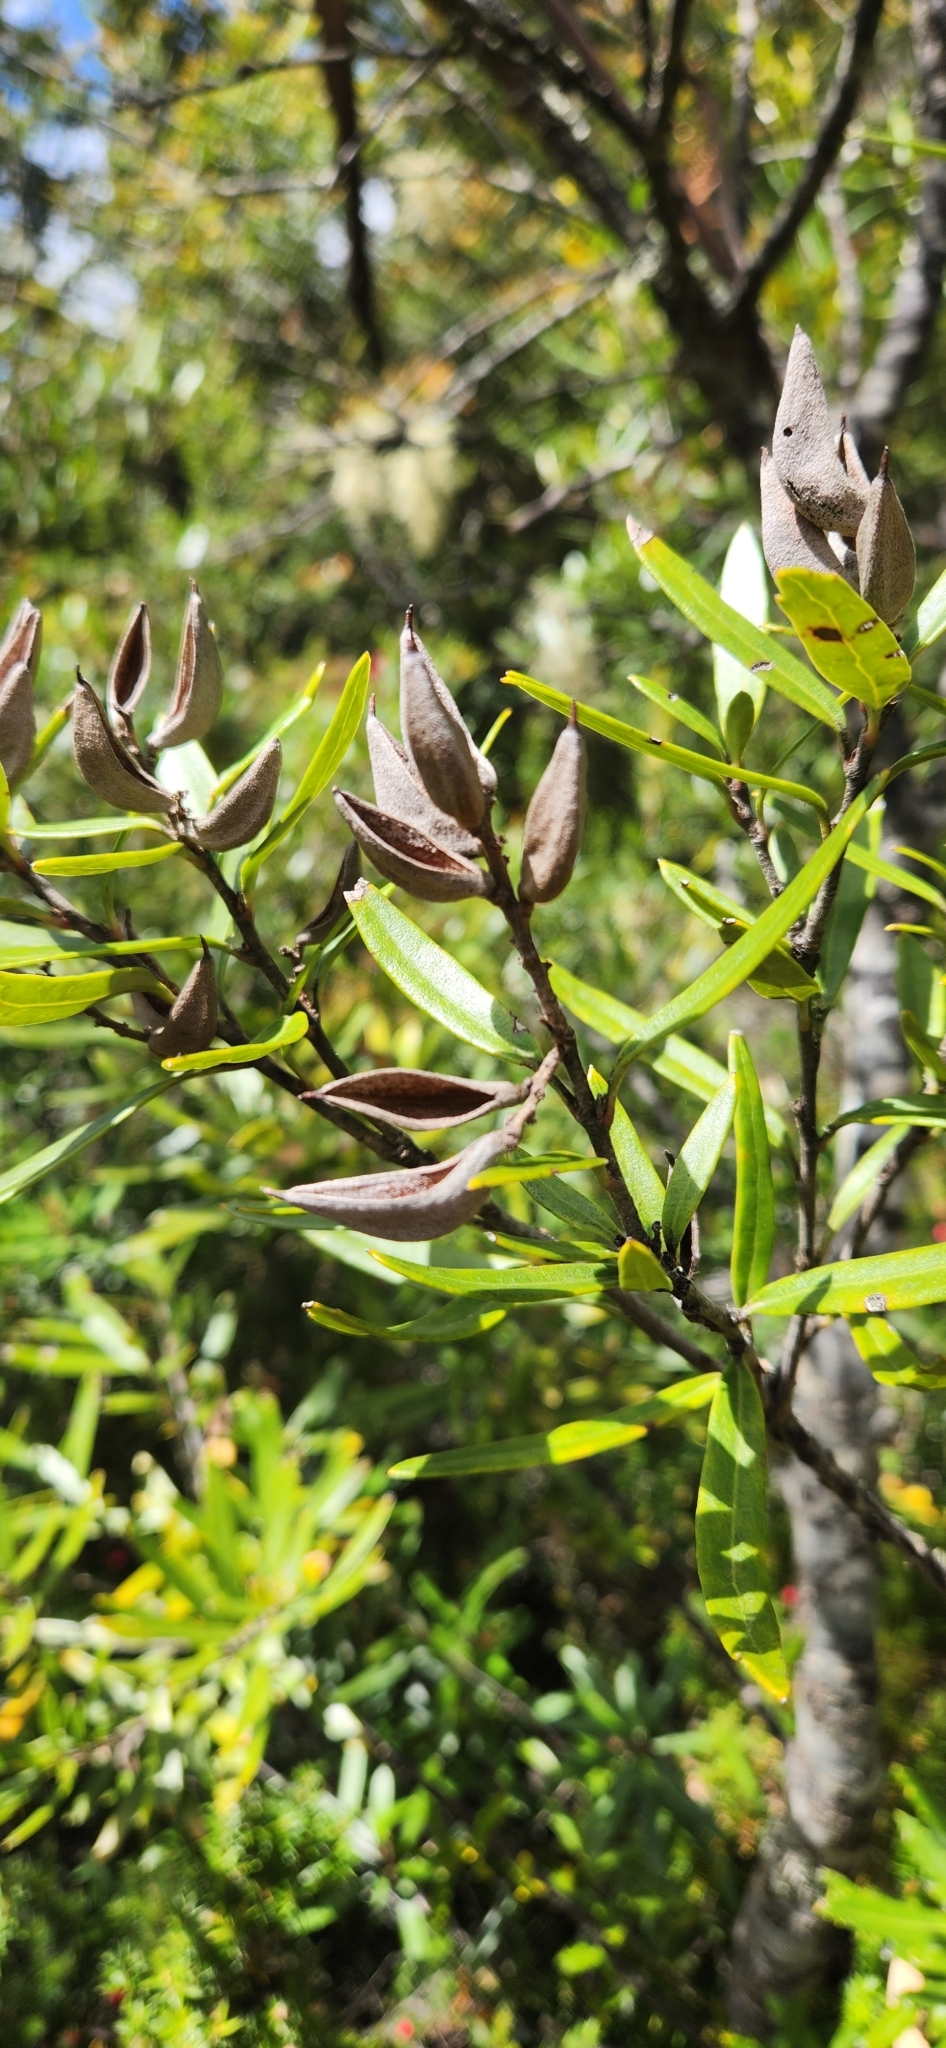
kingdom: Plantae
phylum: Tracheophyta
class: Magnoliopsida
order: Proteales
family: Proteaceae
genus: Orites
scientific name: Orites diversifolius
